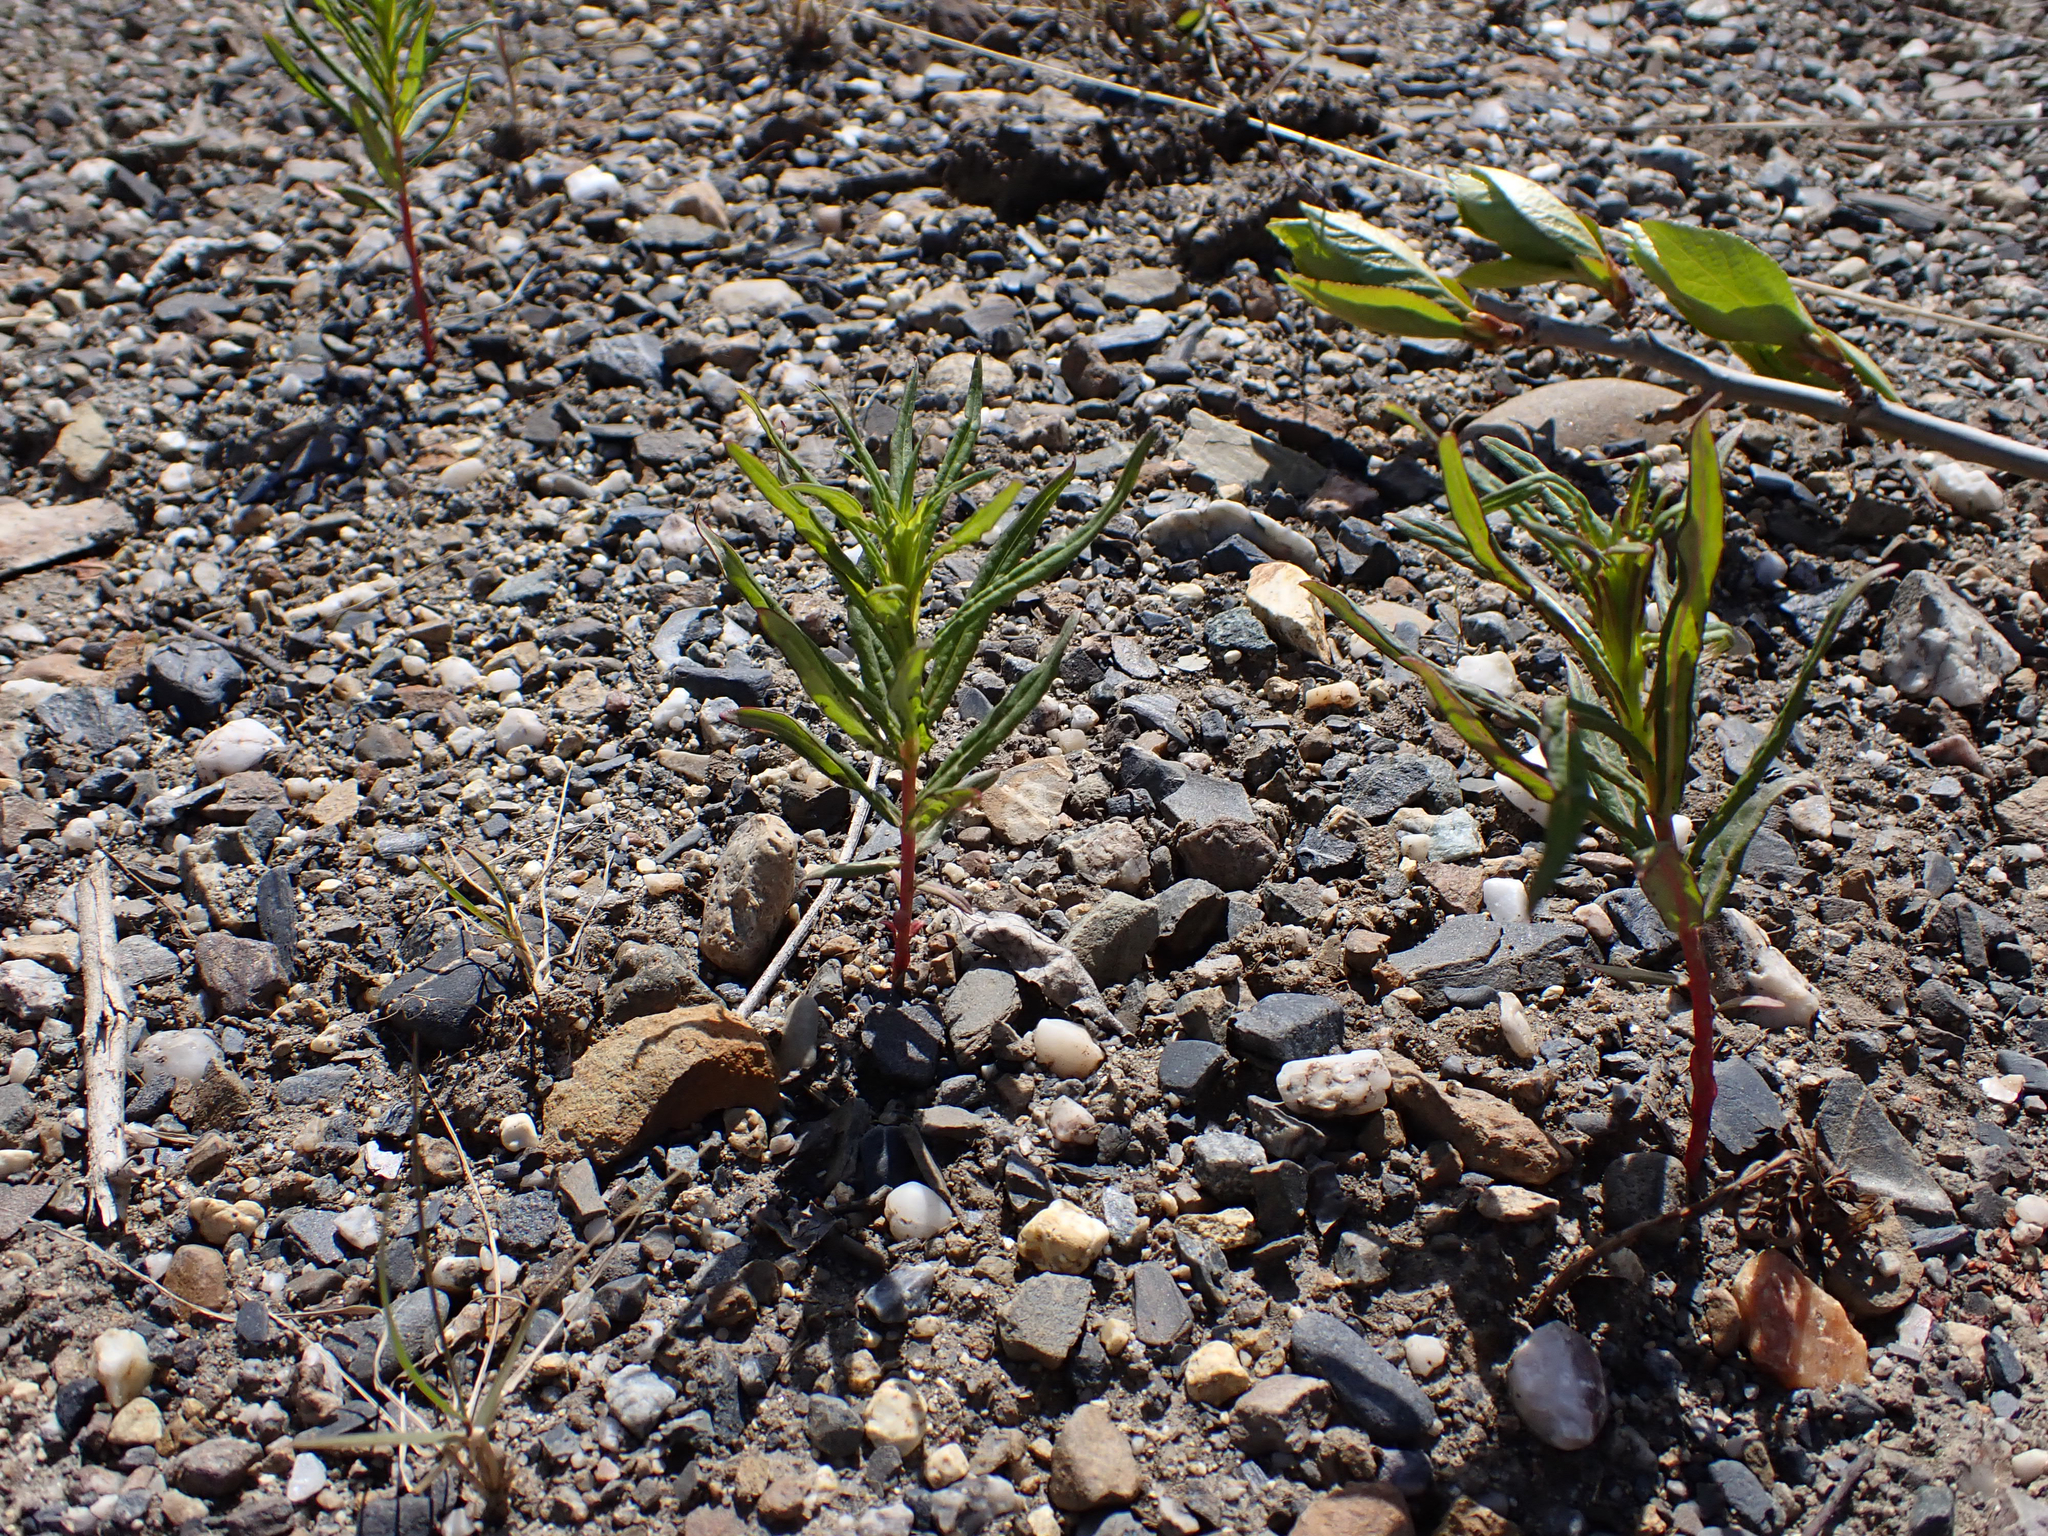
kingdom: Plantae
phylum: Tracheophyta
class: Magnoliopsida
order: Myrtales
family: Onagraceae
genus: Chamaenerion
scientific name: Chamaenerion angustifolium
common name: Fireweed
